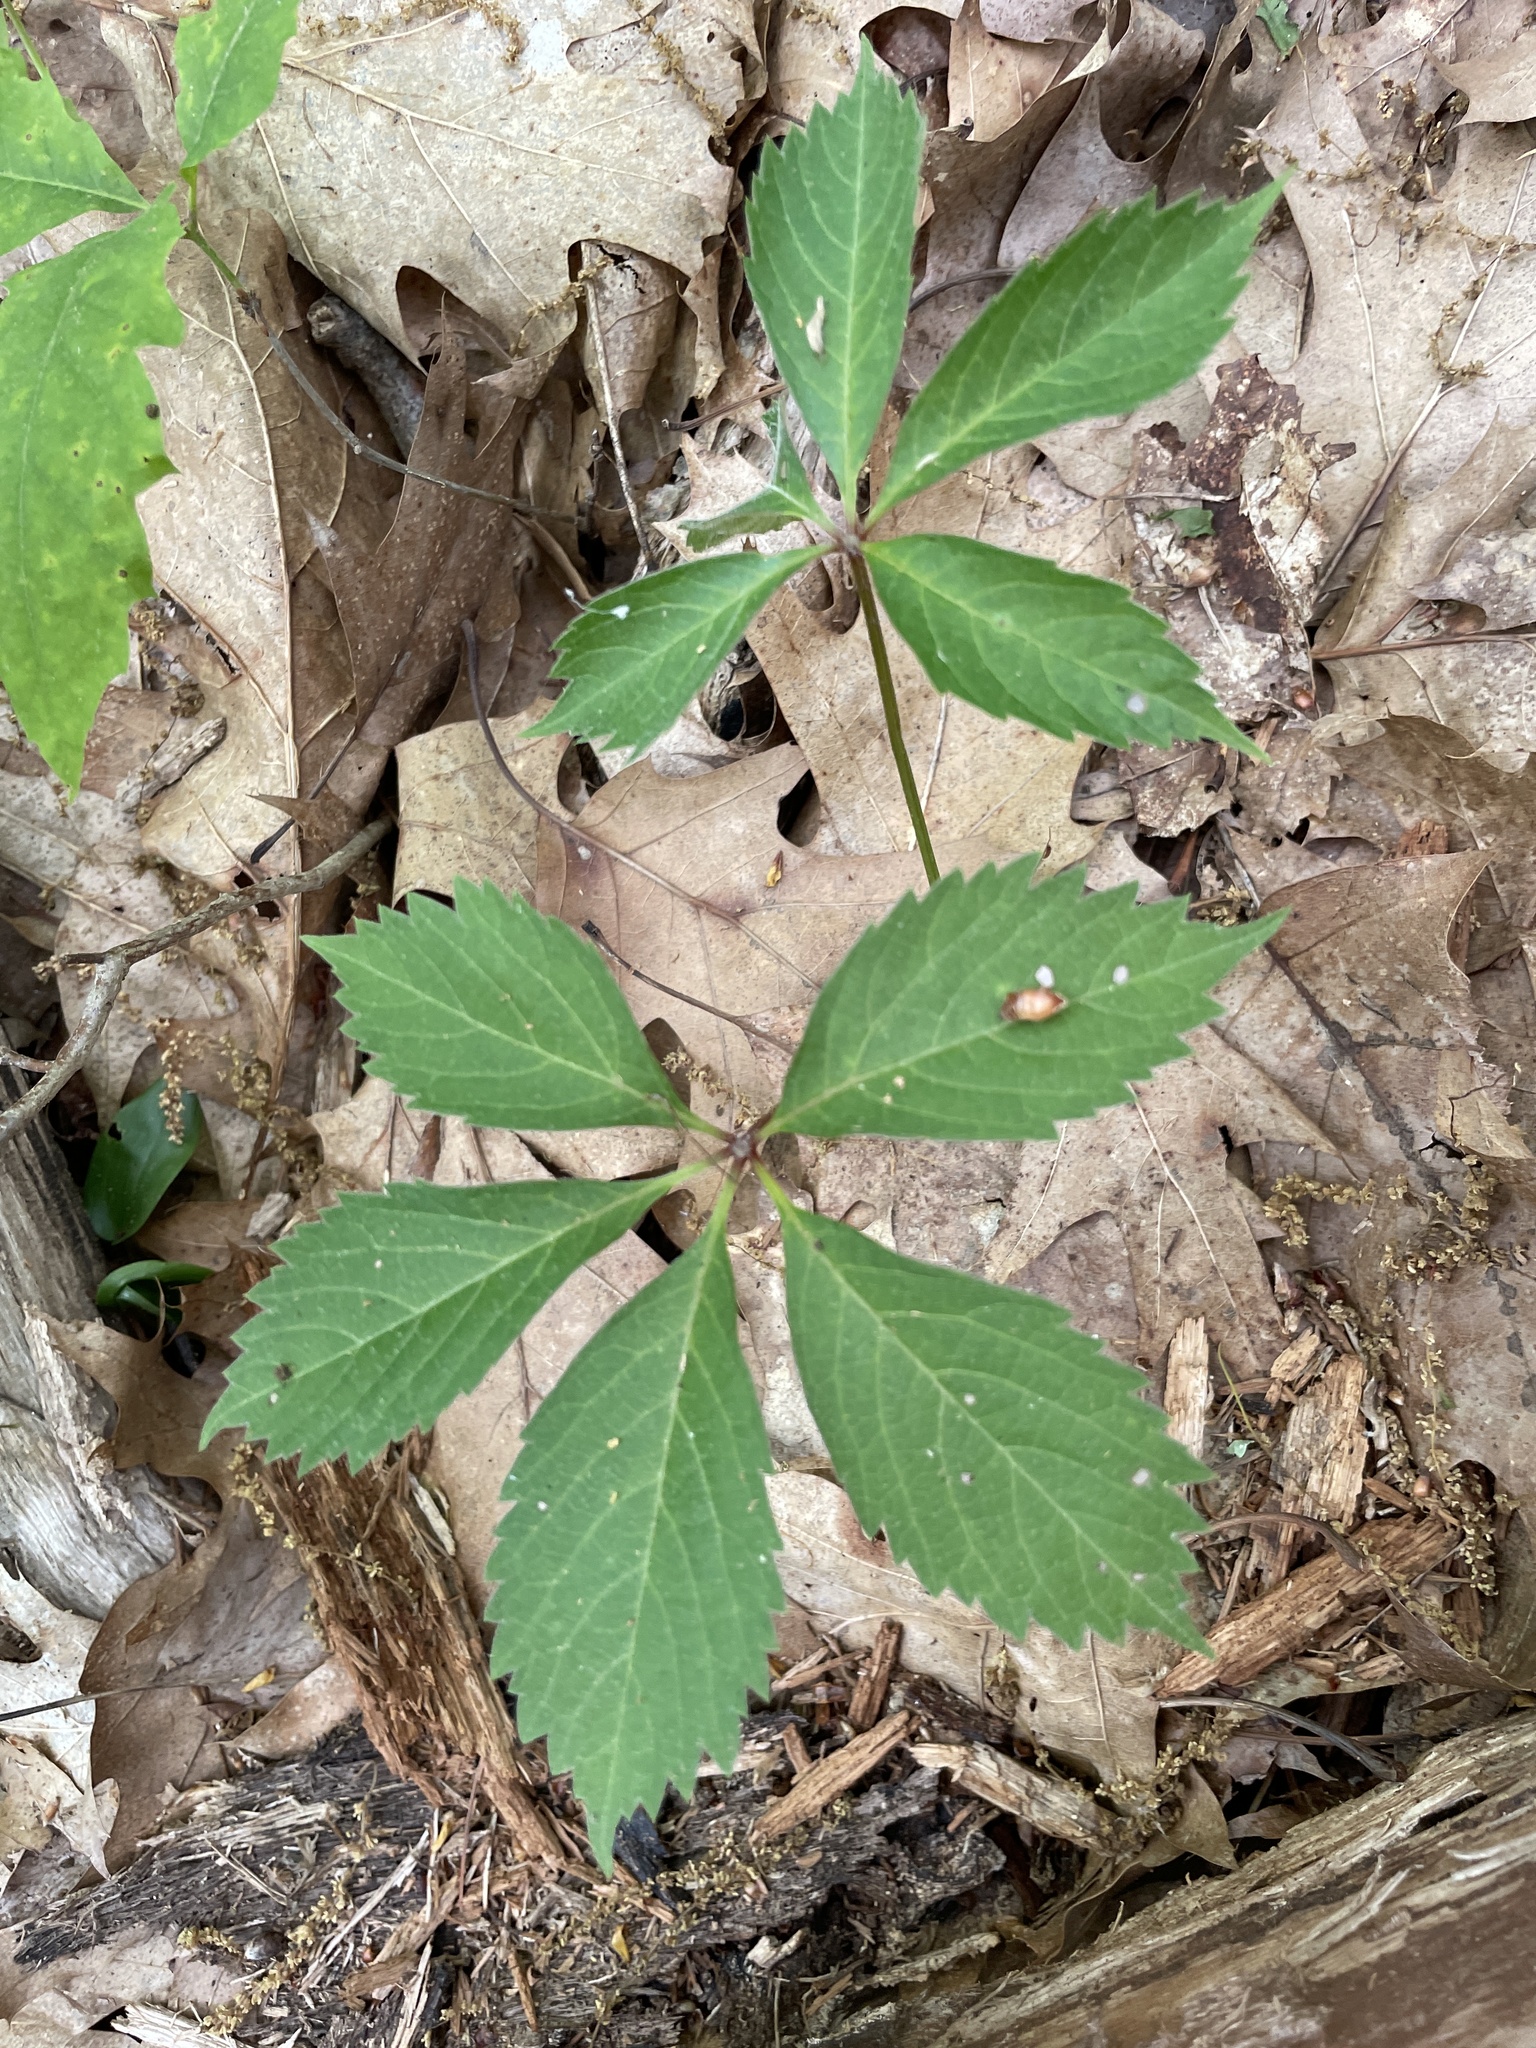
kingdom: Plantae
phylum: Tracheophyta
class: Magnoliopsida
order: Vitales
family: Vitaceae
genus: Parthenocissus
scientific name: Parthenocissus quinquefolia
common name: Virginia-creeper
